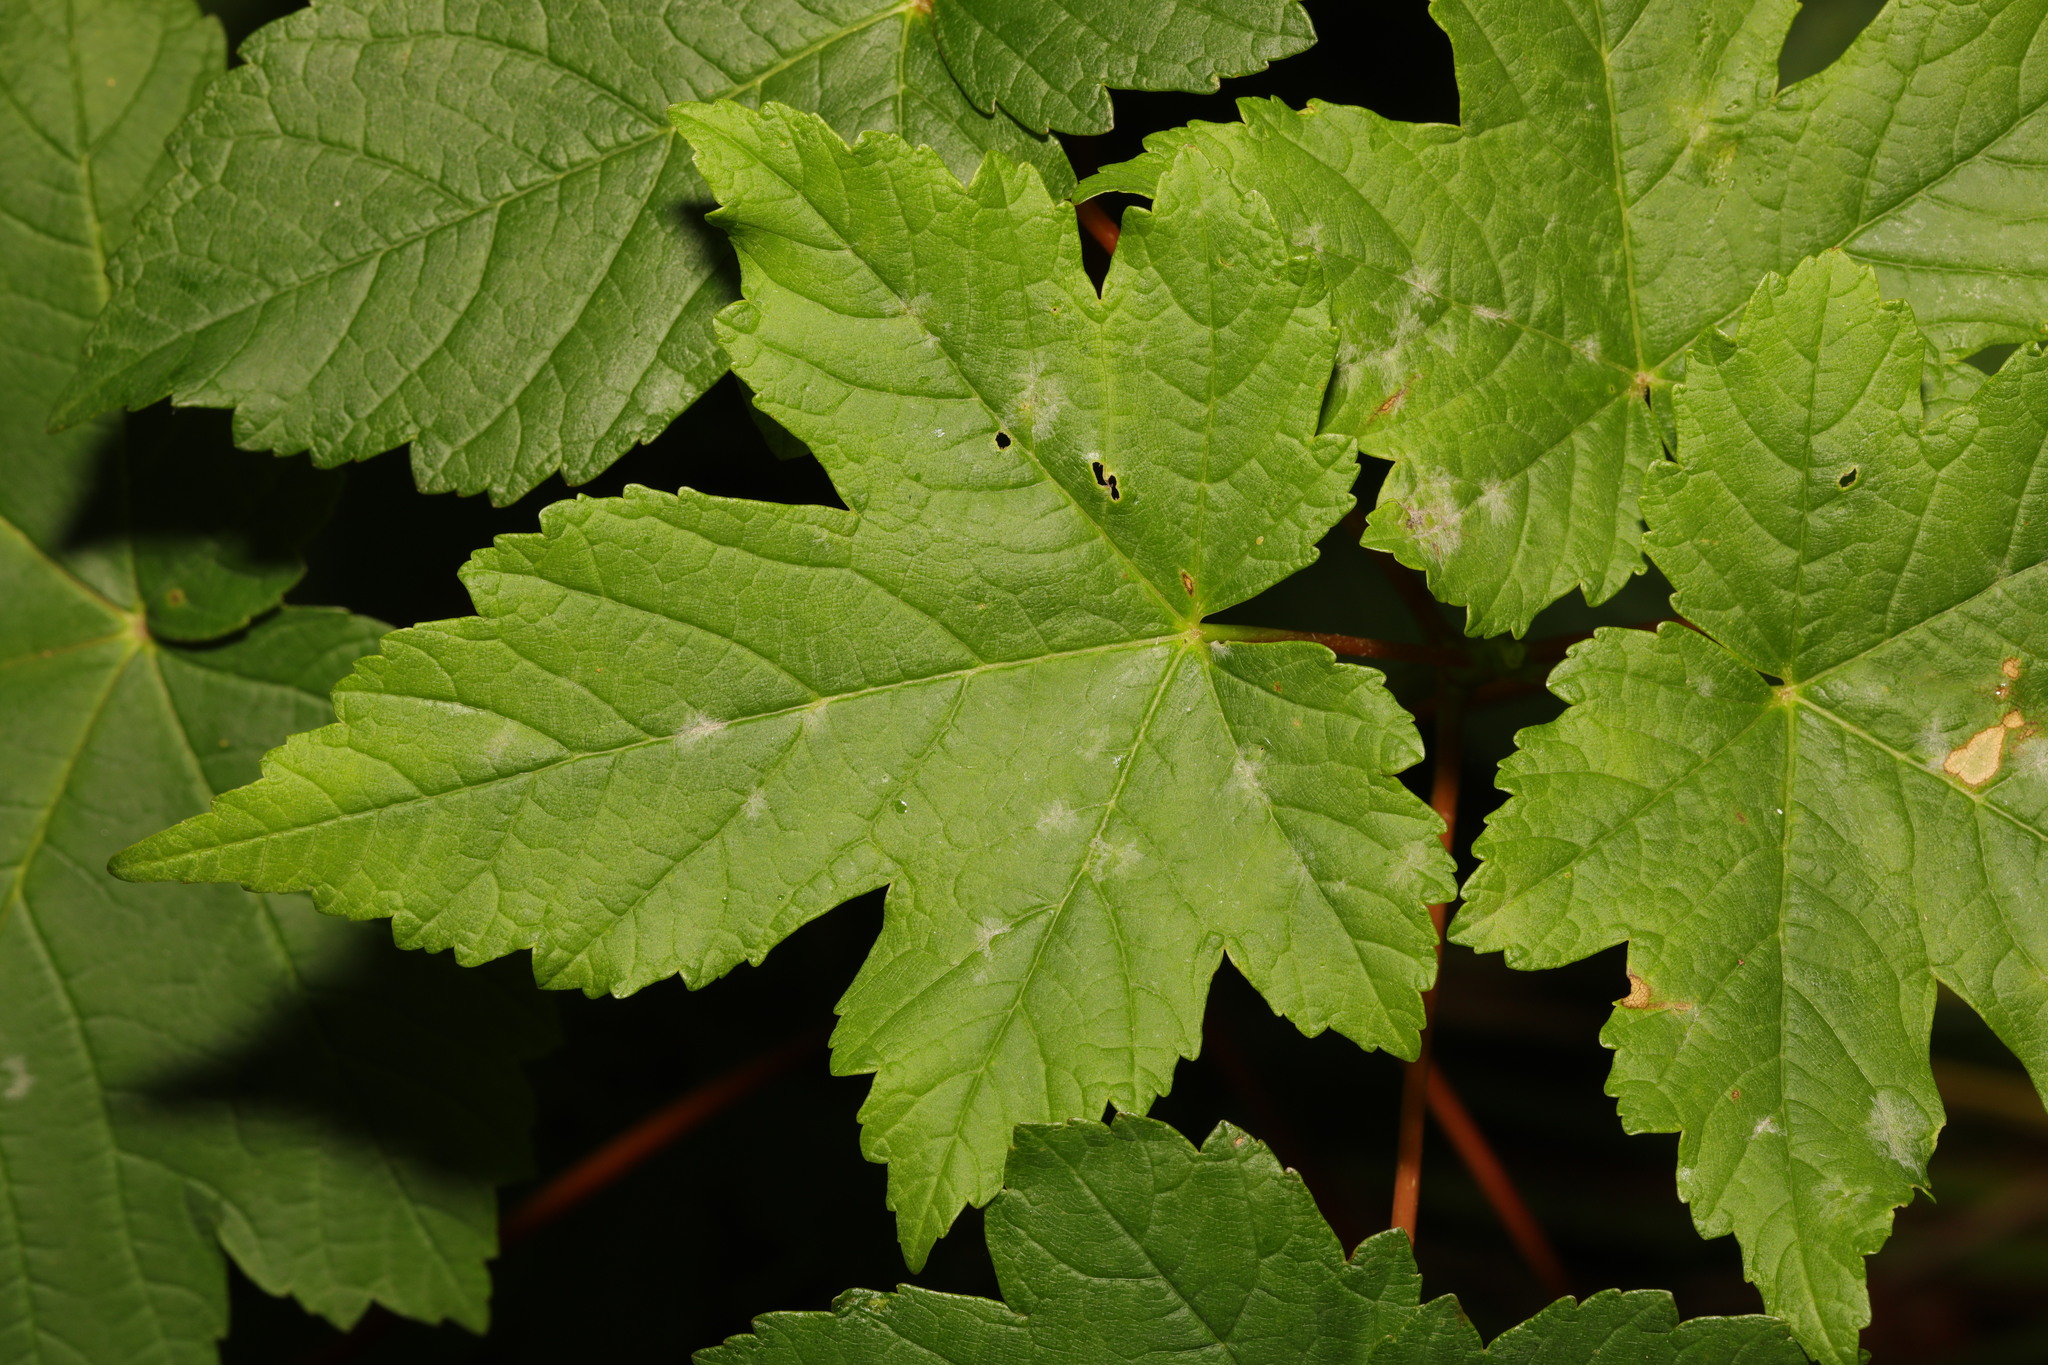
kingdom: Fungi
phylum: Ascomycota
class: Leotiomycetes
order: Helotiales
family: Erysiphaceae
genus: Sawadaea
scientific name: Sawadaea bicornis
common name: Maple mildew
